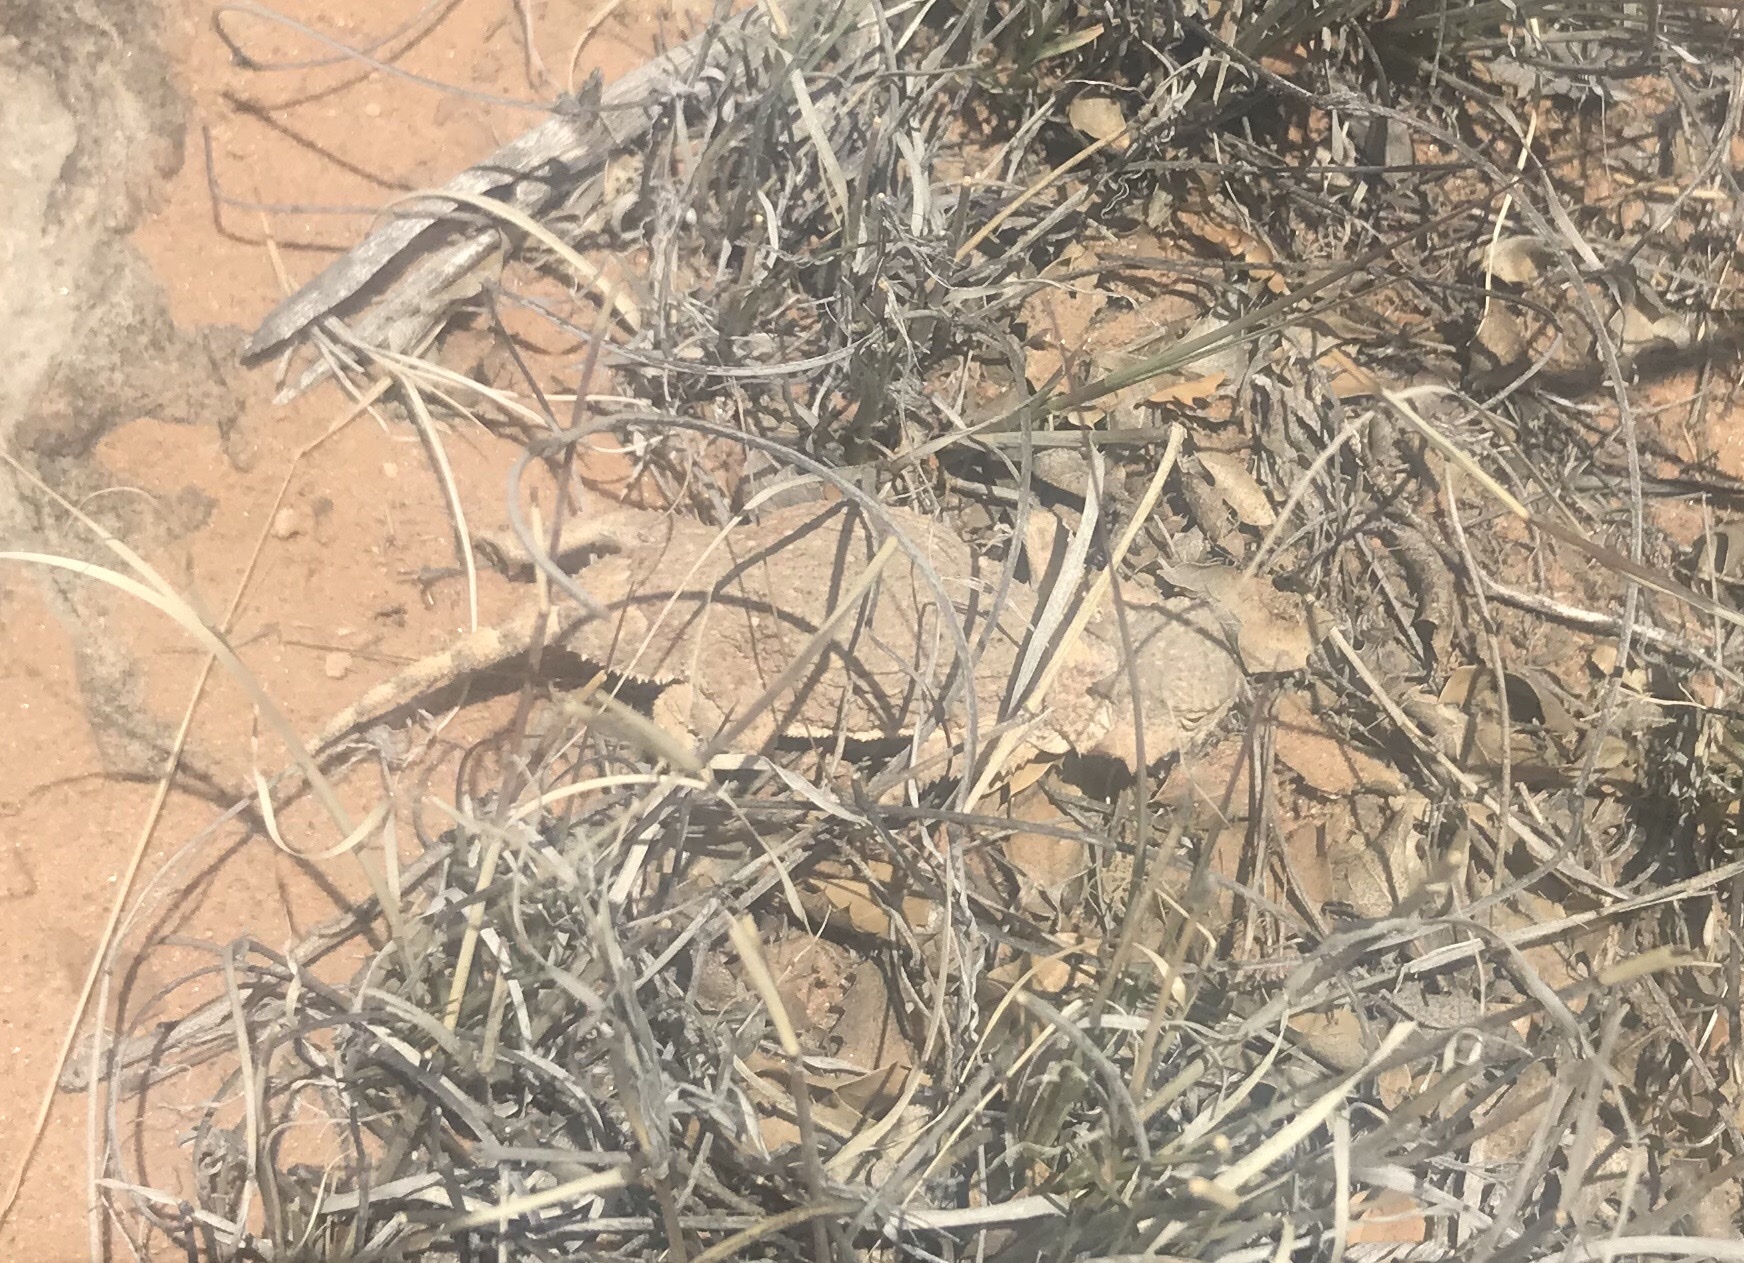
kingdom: Animalia
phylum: Chordata
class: Squamata
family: Phrynosomatidae
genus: Phrynosoma
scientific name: Phrynosoma hernandesi
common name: Greater short-horned lizard
